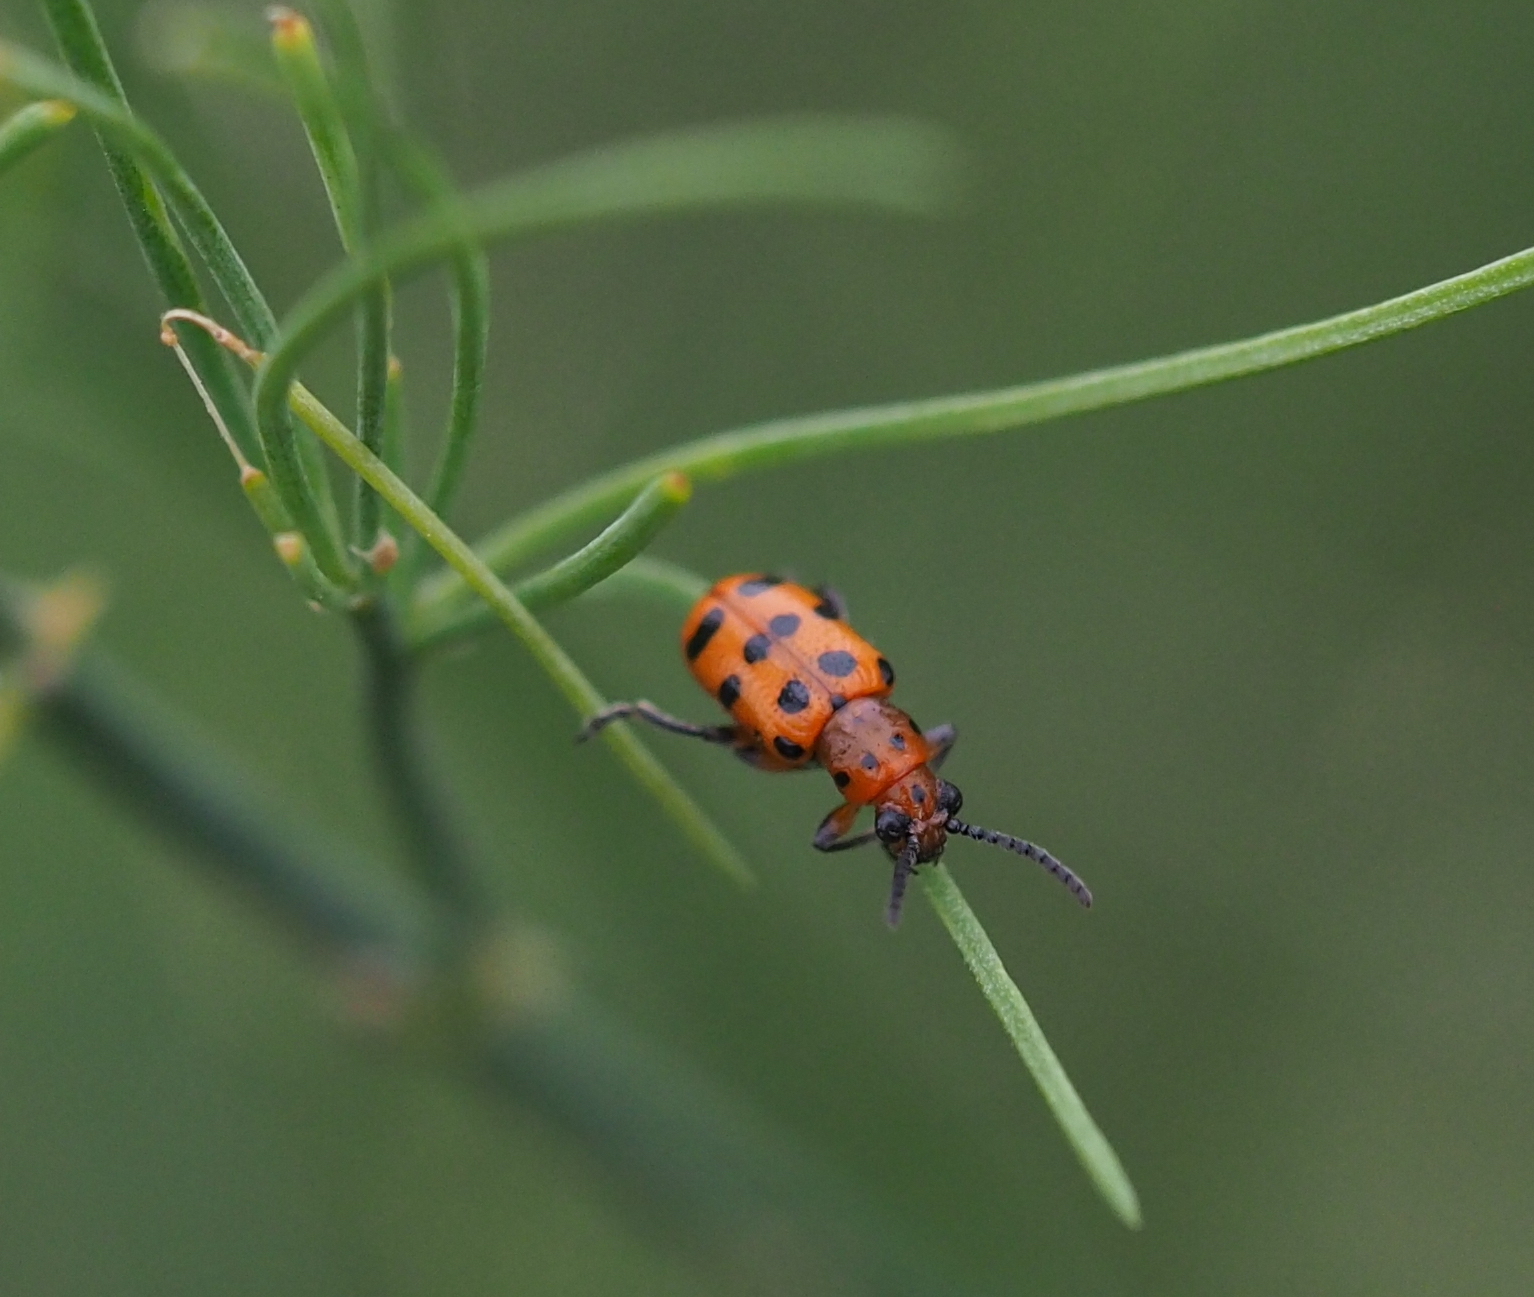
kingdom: Animalia
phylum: Arthropoda
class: Insecta
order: Coleoptera
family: Chrysomelidae
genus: Crioceris
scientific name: Crioceris quatuordecimpunctata
